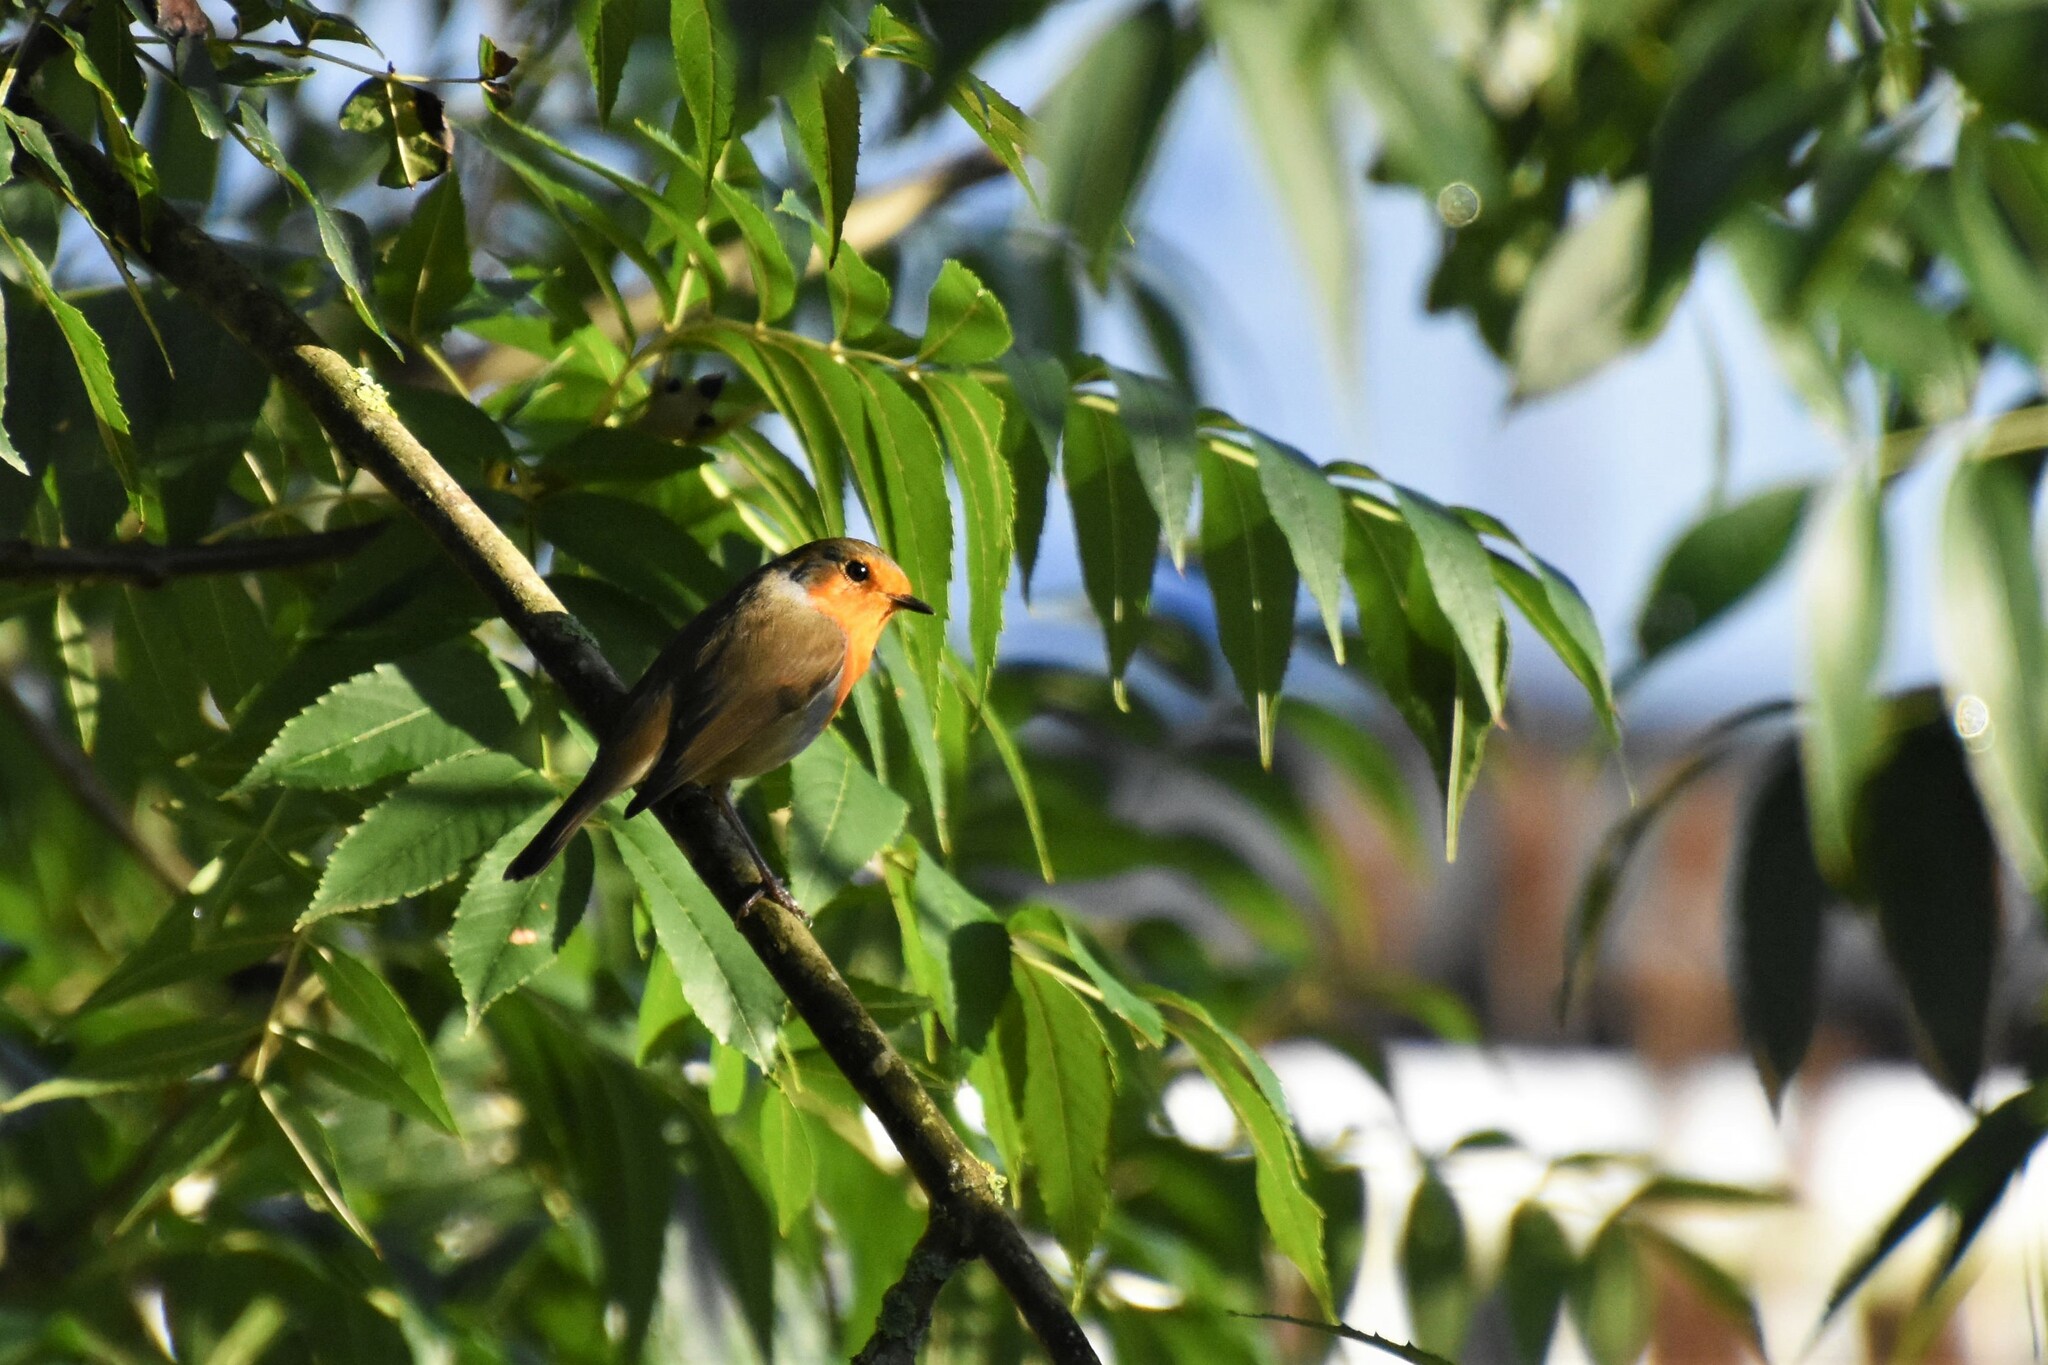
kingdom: Animalia
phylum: Chordata
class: Aves
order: Passeriformes
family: Muscicapidae
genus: Erithacus
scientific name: Erithacus rubecula
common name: European robin
